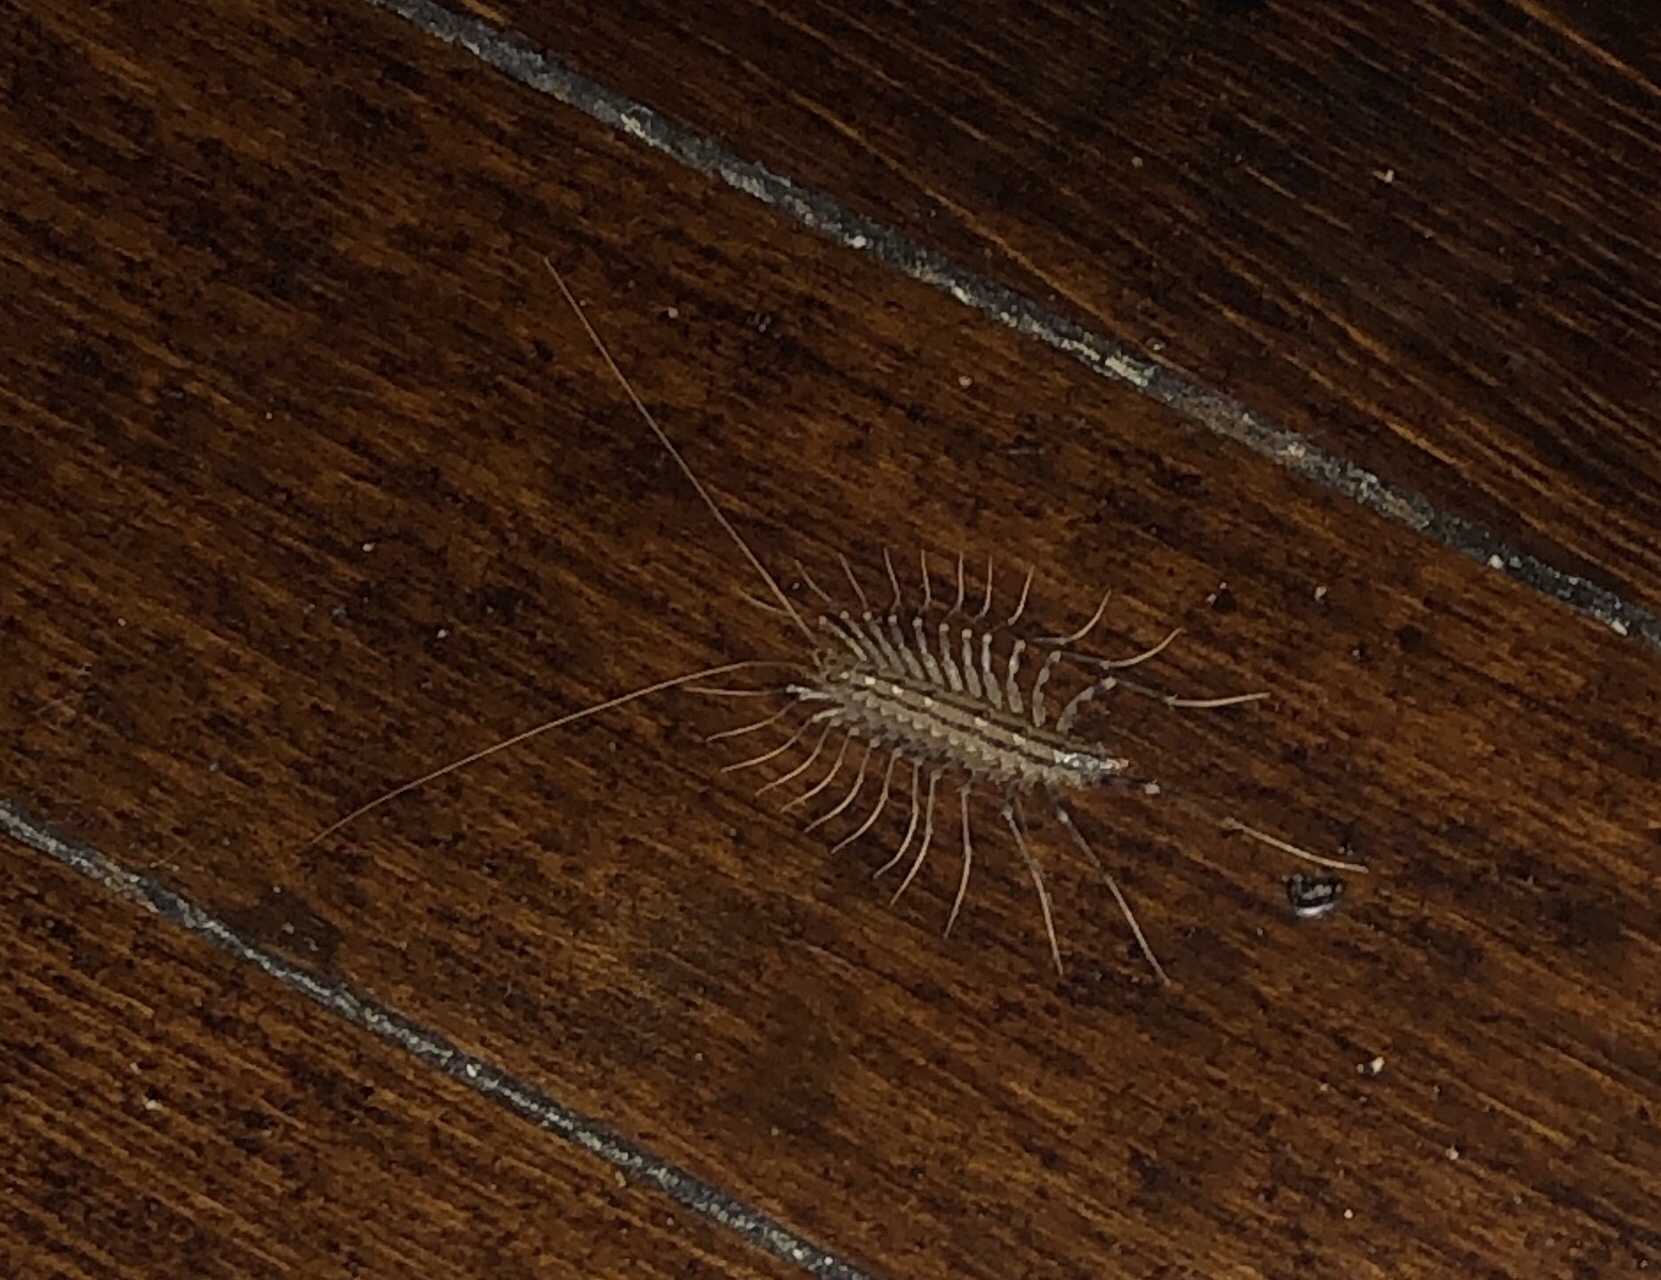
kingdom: Animalia
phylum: Arthropoda
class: Chilopoda
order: Scutigeromorpha
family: Scutigeridae
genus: Scutigera
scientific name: Scutigera coleoptrata
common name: House centipede
